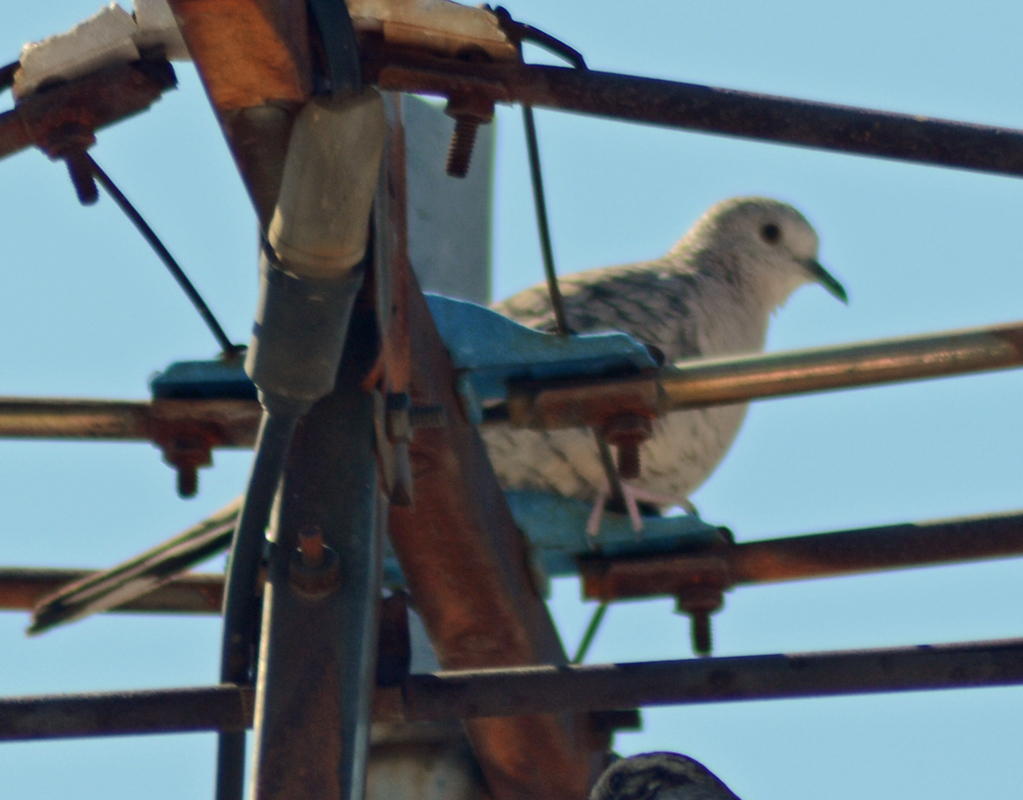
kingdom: Animalia
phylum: Chordata
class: Aves
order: Columbiformes
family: Columbidae
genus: Columbina
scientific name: Columbina inca
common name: Inca dove
